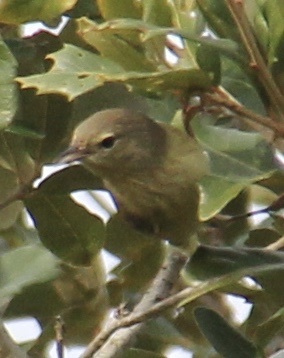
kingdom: Animalia
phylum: Chordata
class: Aves
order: Passeriformes
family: Parulidae
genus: Leiothlypis
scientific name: Leiothlypis celata
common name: Orange-crowned warbler
